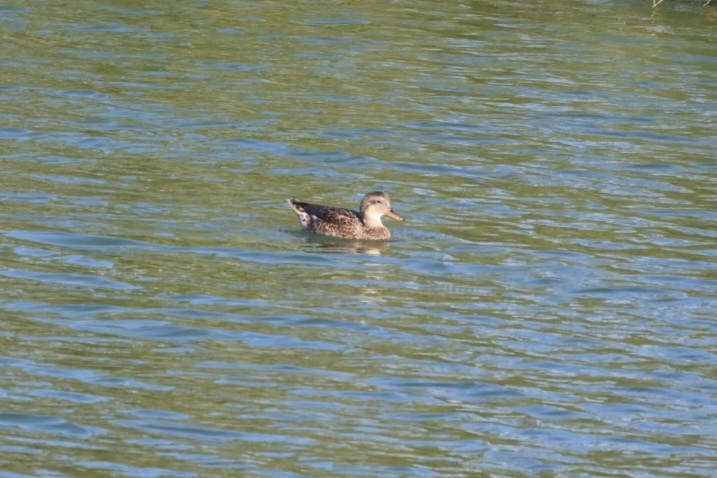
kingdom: Animalia
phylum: Chordata
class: Aves
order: Anseriformes
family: Anatidae
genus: Mareca
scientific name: Mareca strepera
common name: Gadwall
